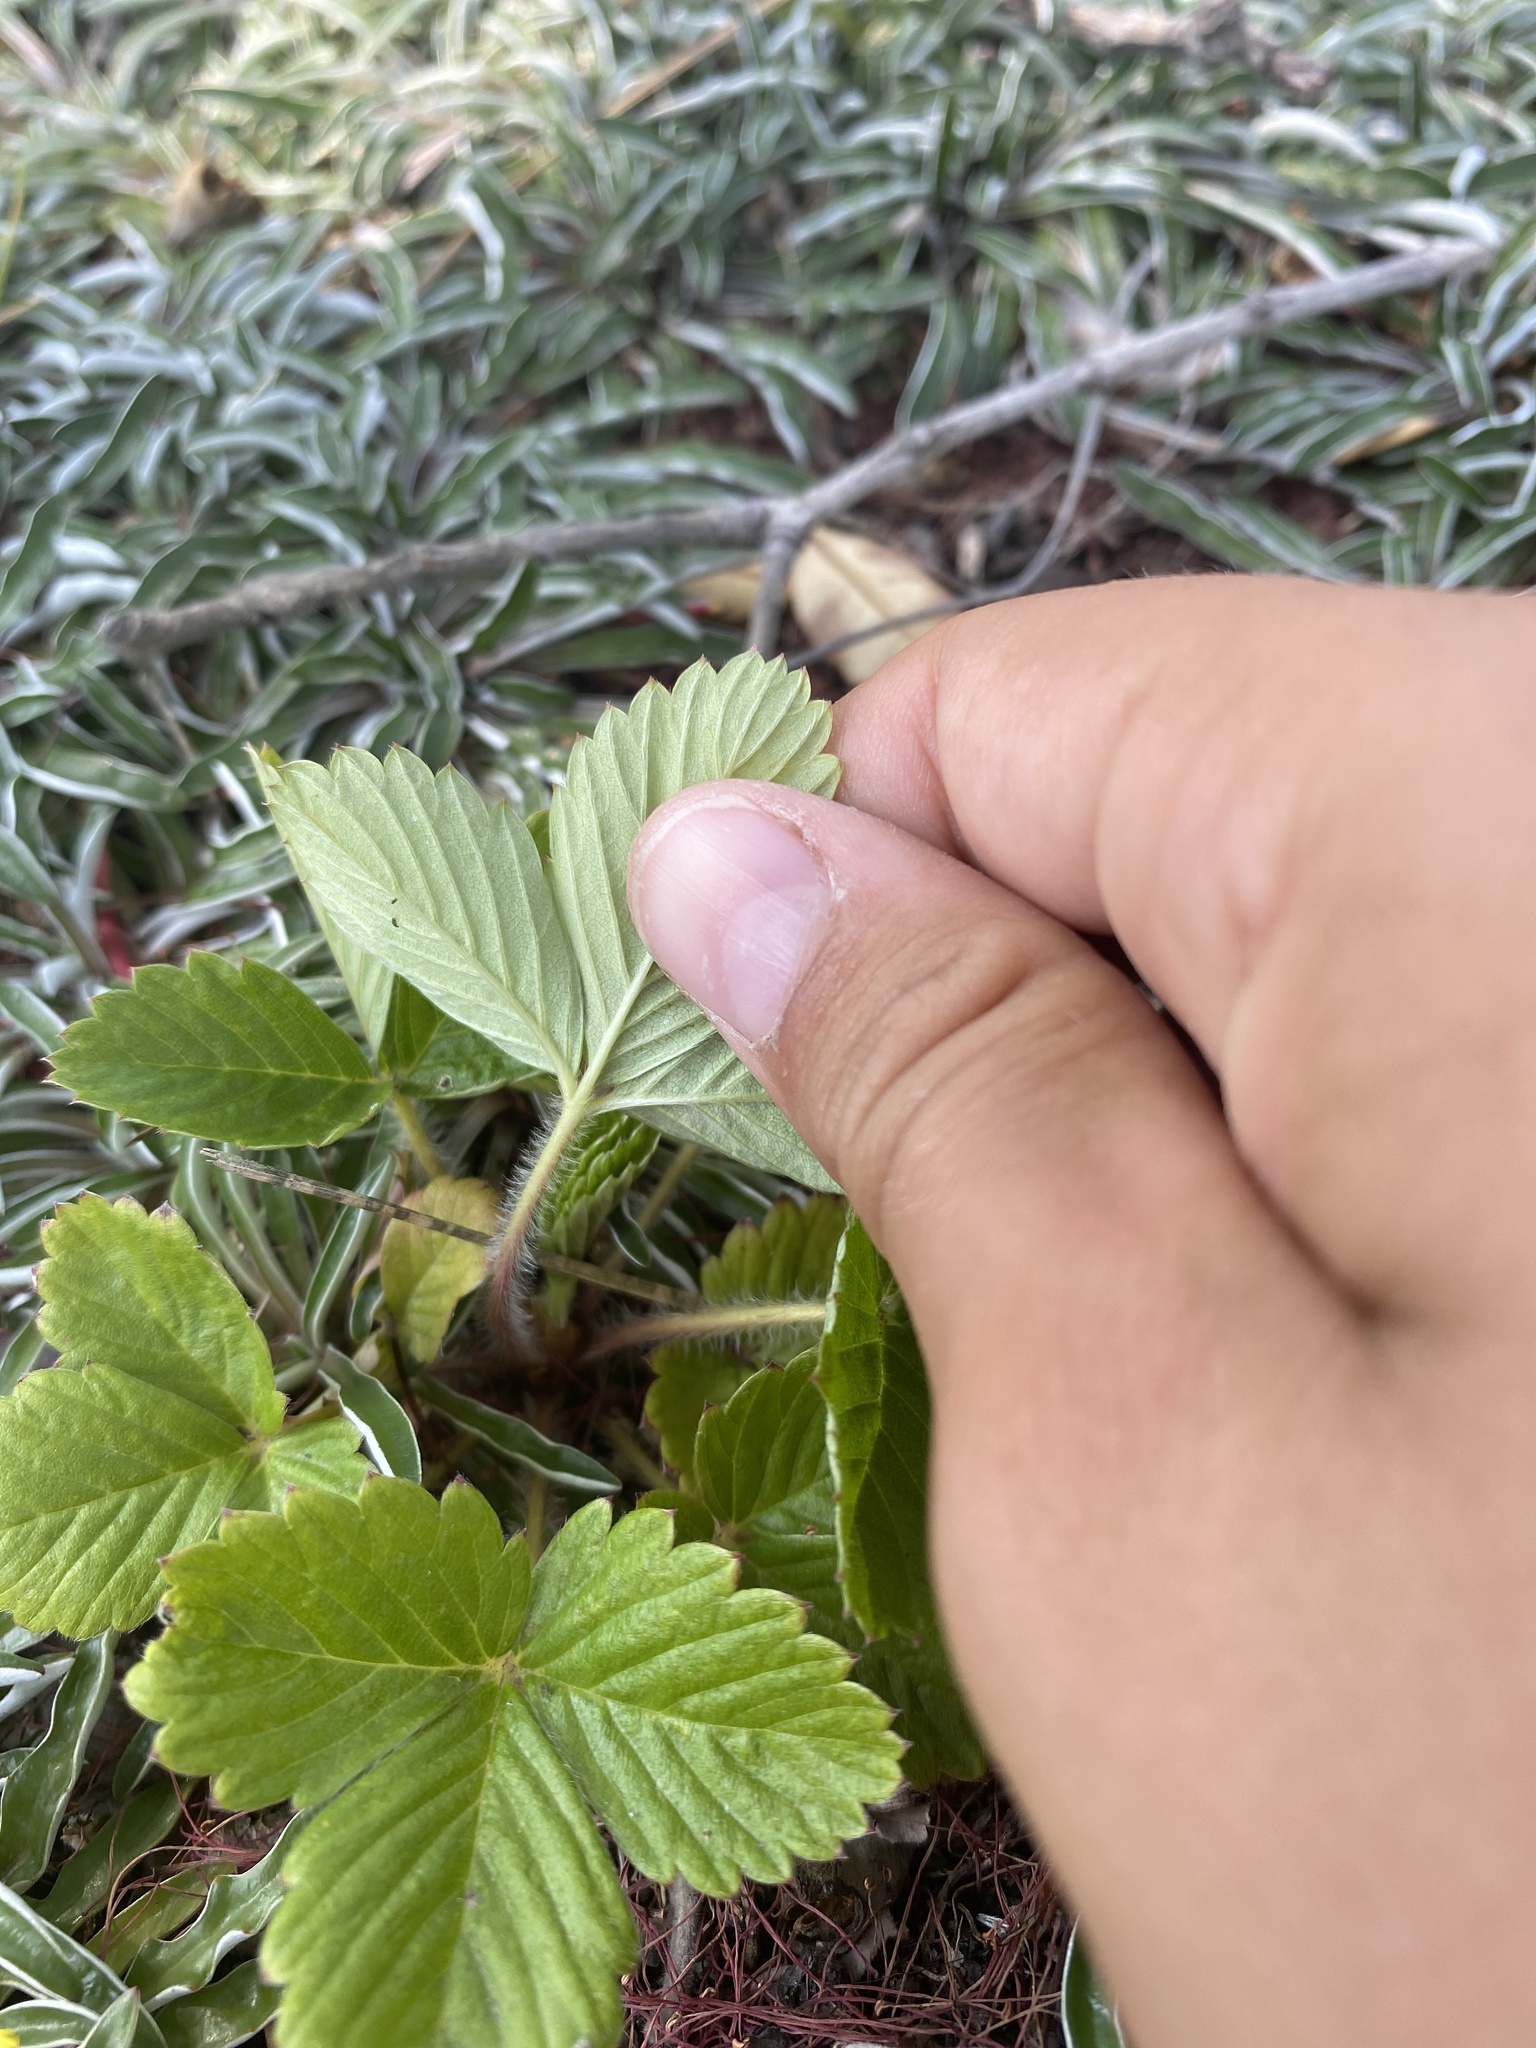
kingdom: Plantae
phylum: Tracheophyta
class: Magnoliopsida
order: Rosales
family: Rosaceae
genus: Fragaria
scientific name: Fragaria vesca
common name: Wild strawberry
